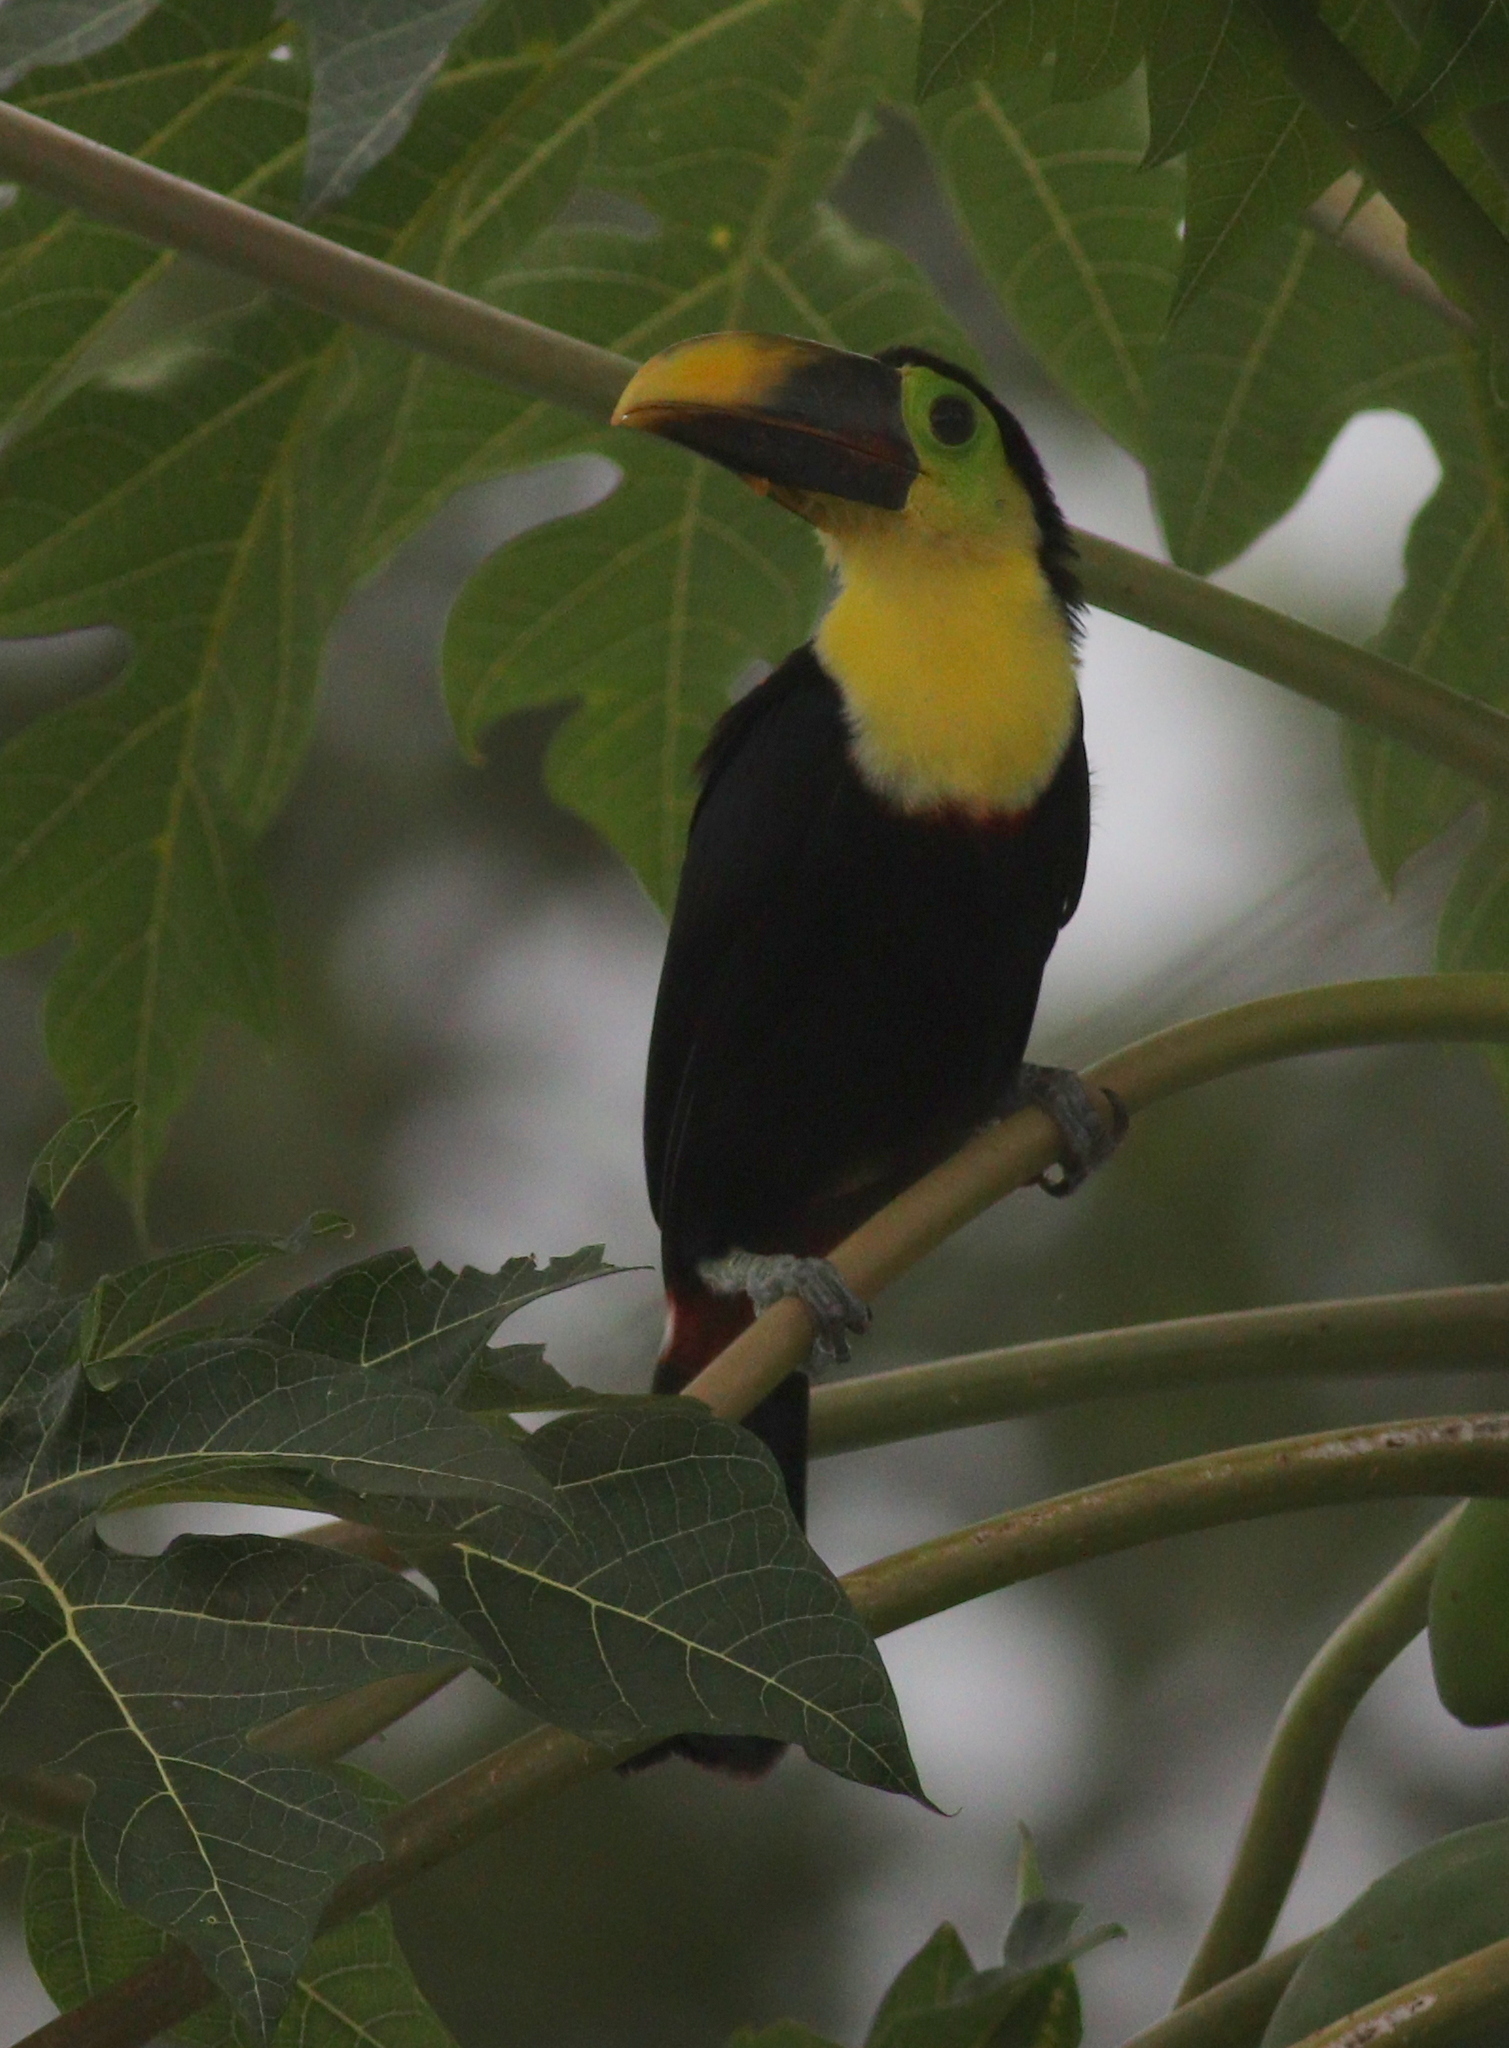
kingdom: Animalia
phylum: Chordata
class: Aves
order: Piciformes
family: Ramphastidae
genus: Ramphastos
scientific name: Ramphastos ambiguus
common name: Yellow-throated toucan
